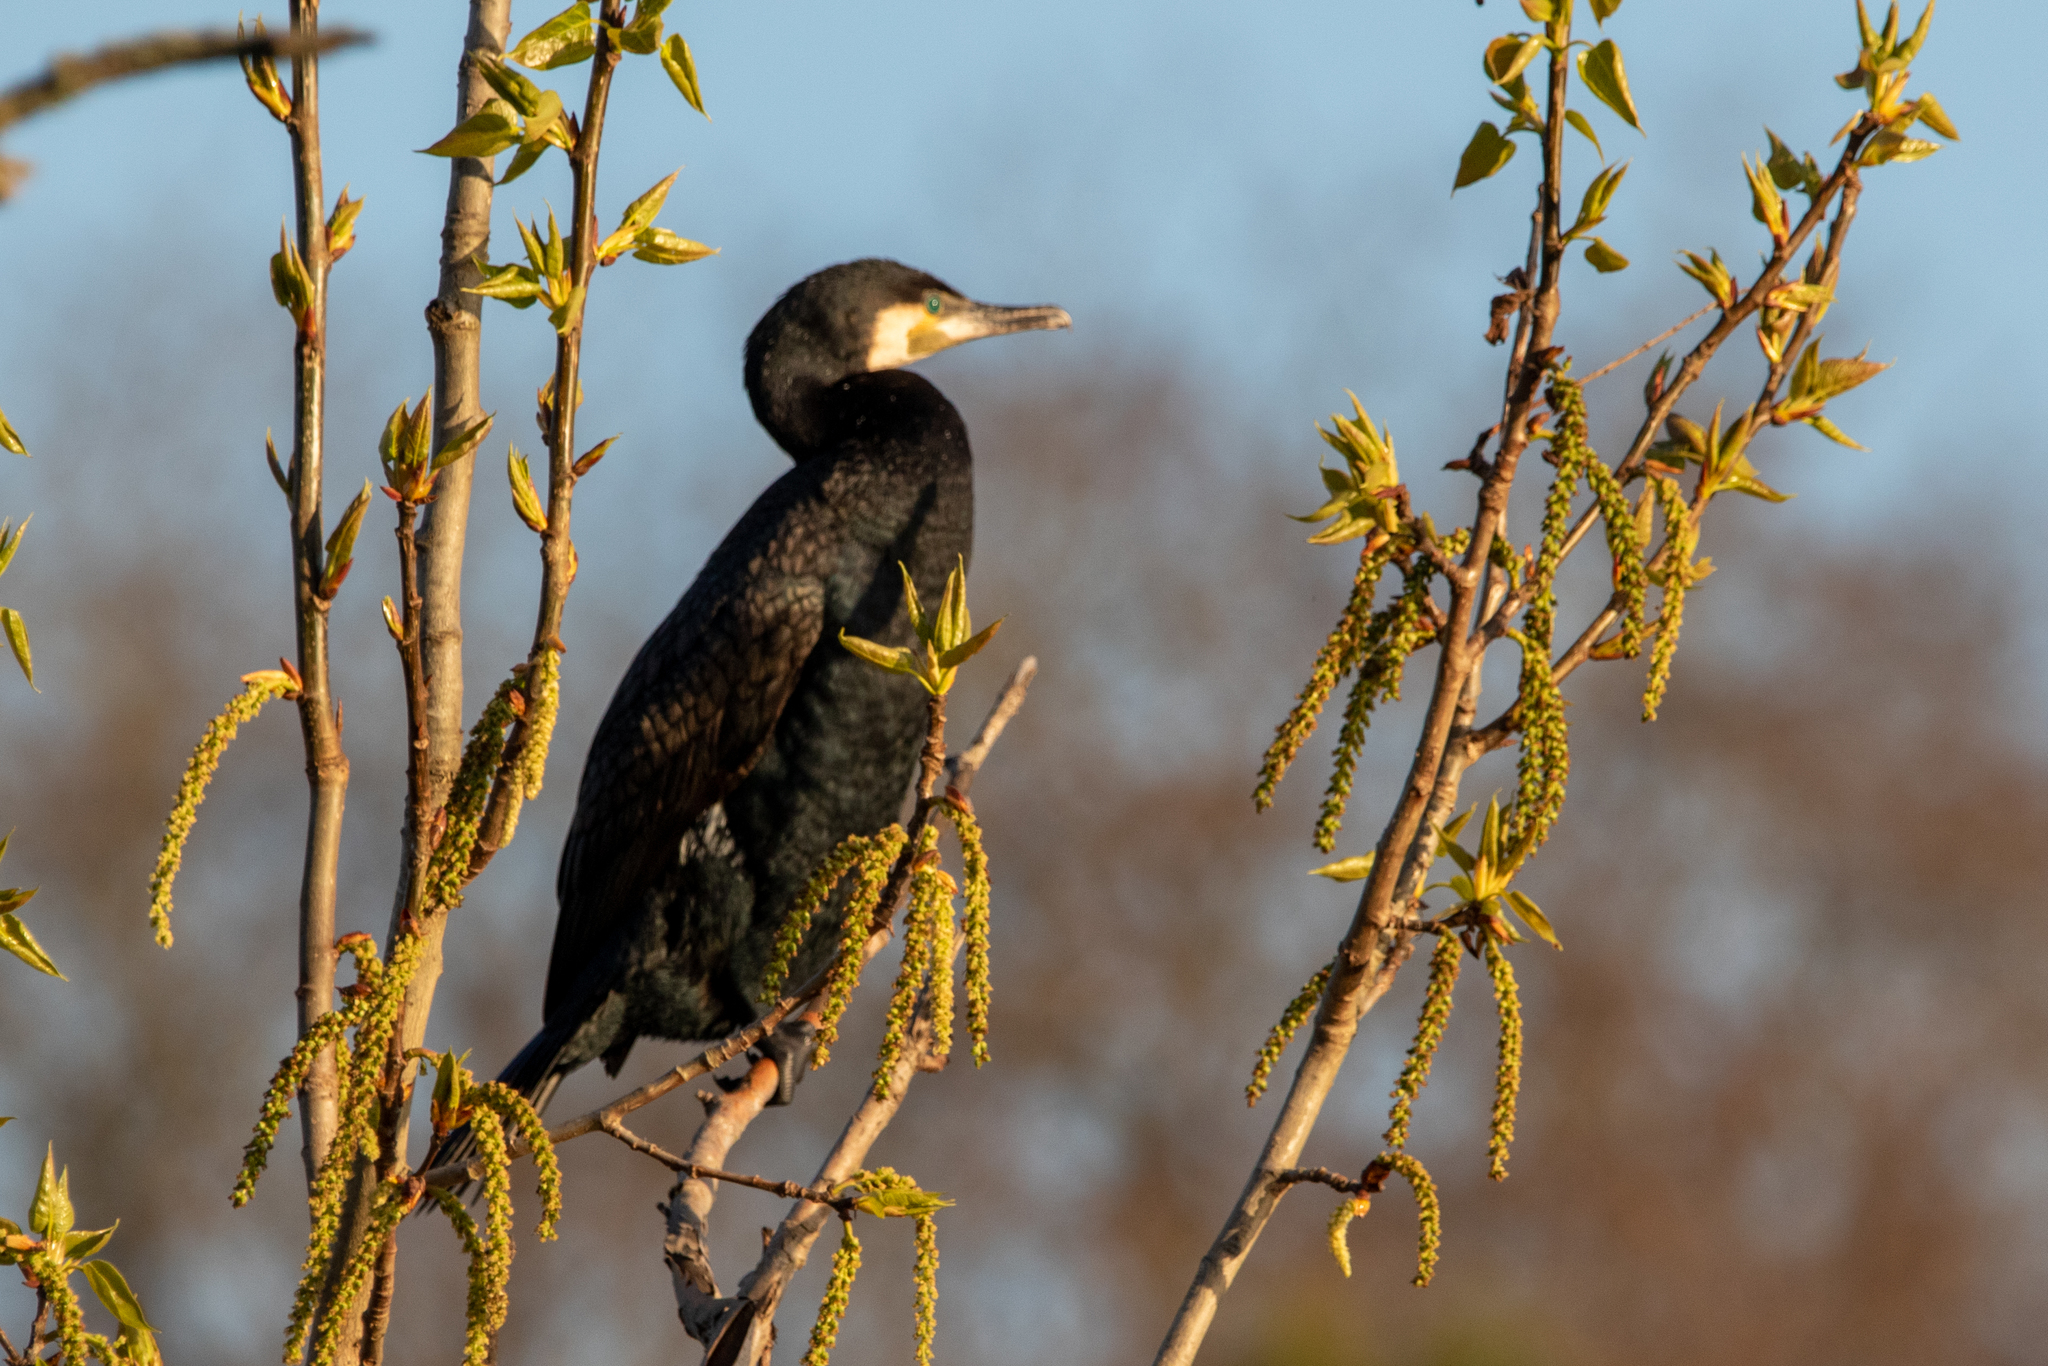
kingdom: Animalia
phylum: Chordata
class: Aves
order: Suliformes
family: Phalacrocoracidae
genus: Phalacrocorax
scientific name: Phalacrocorax carbo
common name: Great cormorant
